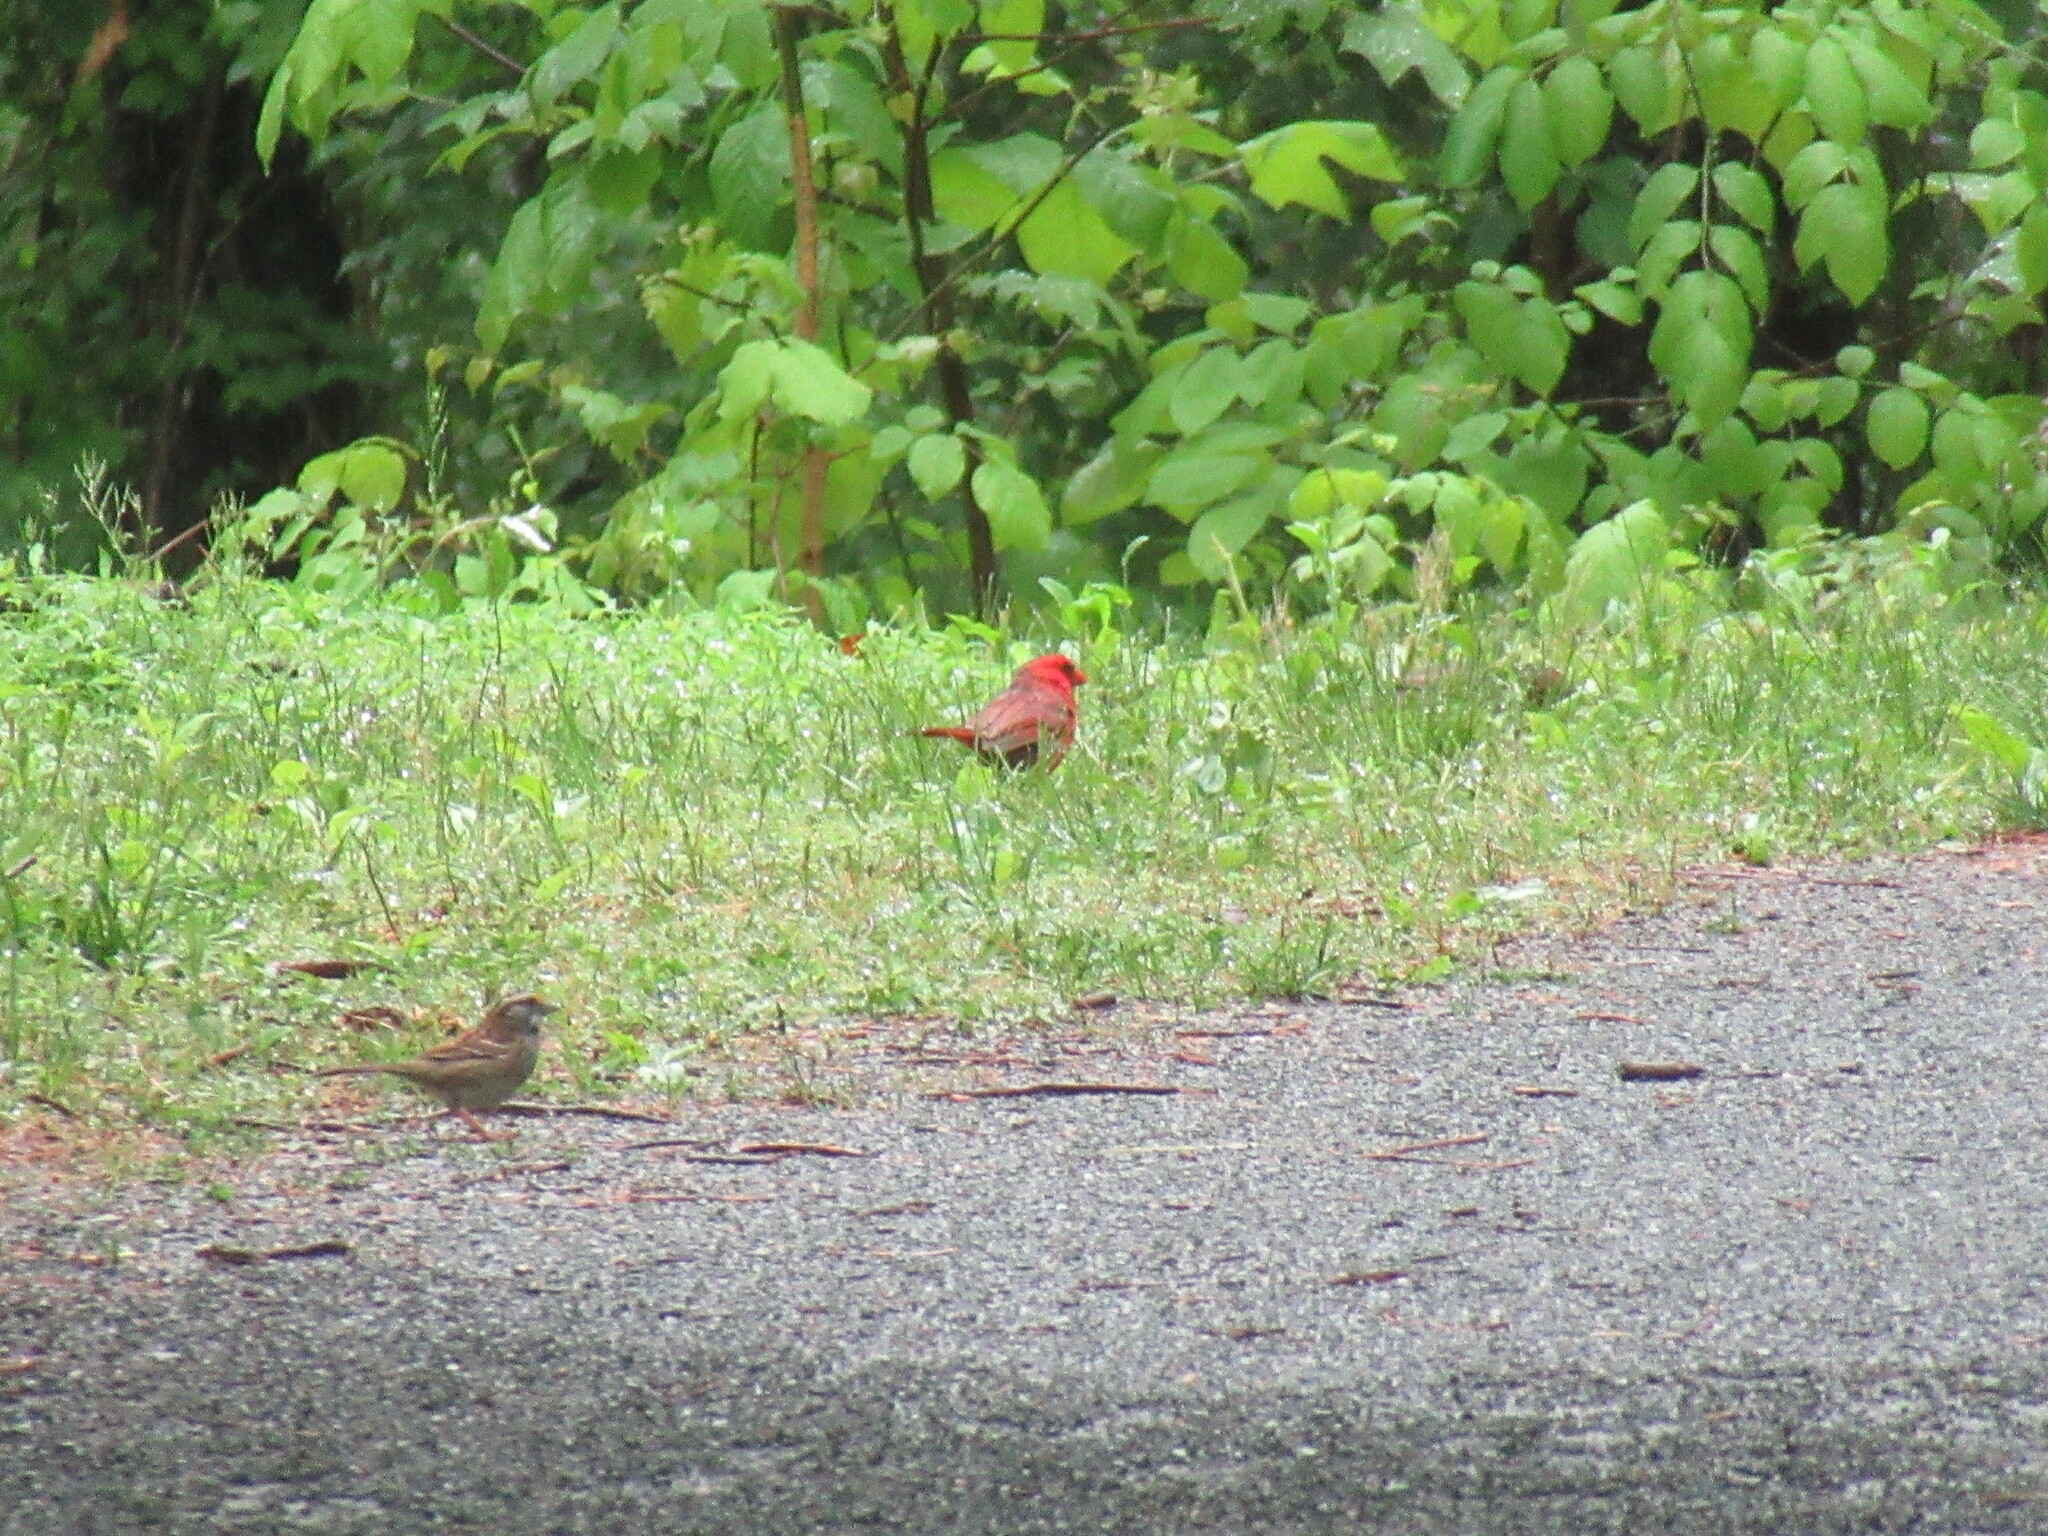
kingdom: Animalia
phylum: Chordata
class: Aves
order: Passeriformes
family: Cardinalidae
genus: Cardinalis
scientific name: Cardinalis cardinalis
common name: Northern cardinal
